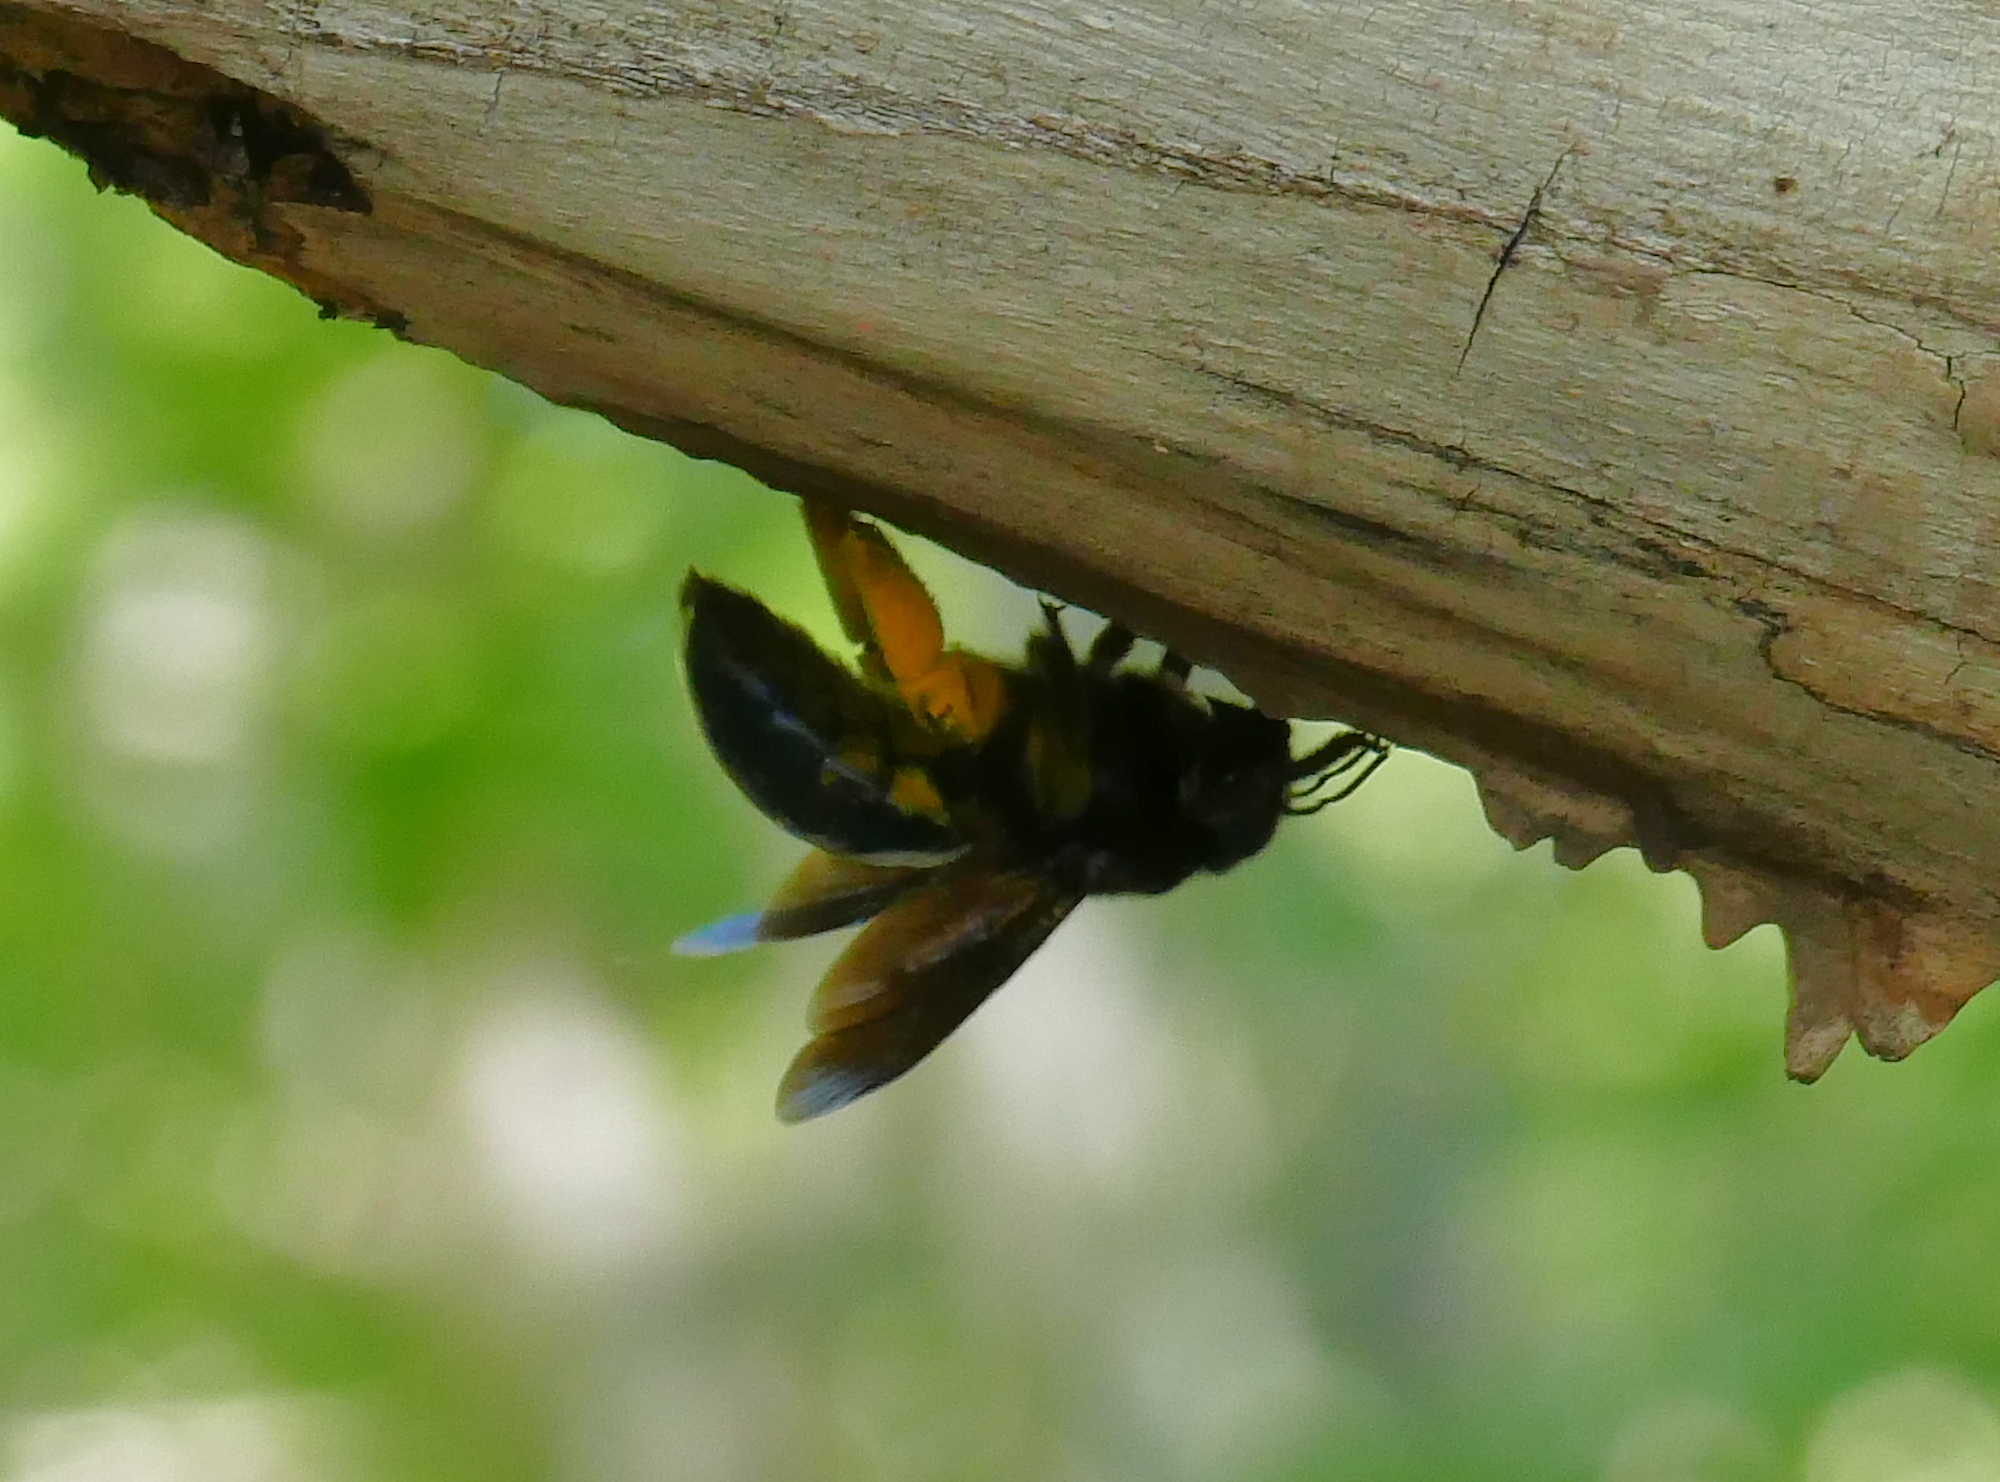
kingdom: Animalia
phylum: Arthropoda
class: Insecta
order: Hymenoptera
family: Apidae
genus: Xylocopa
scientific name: Xylocopa californica
